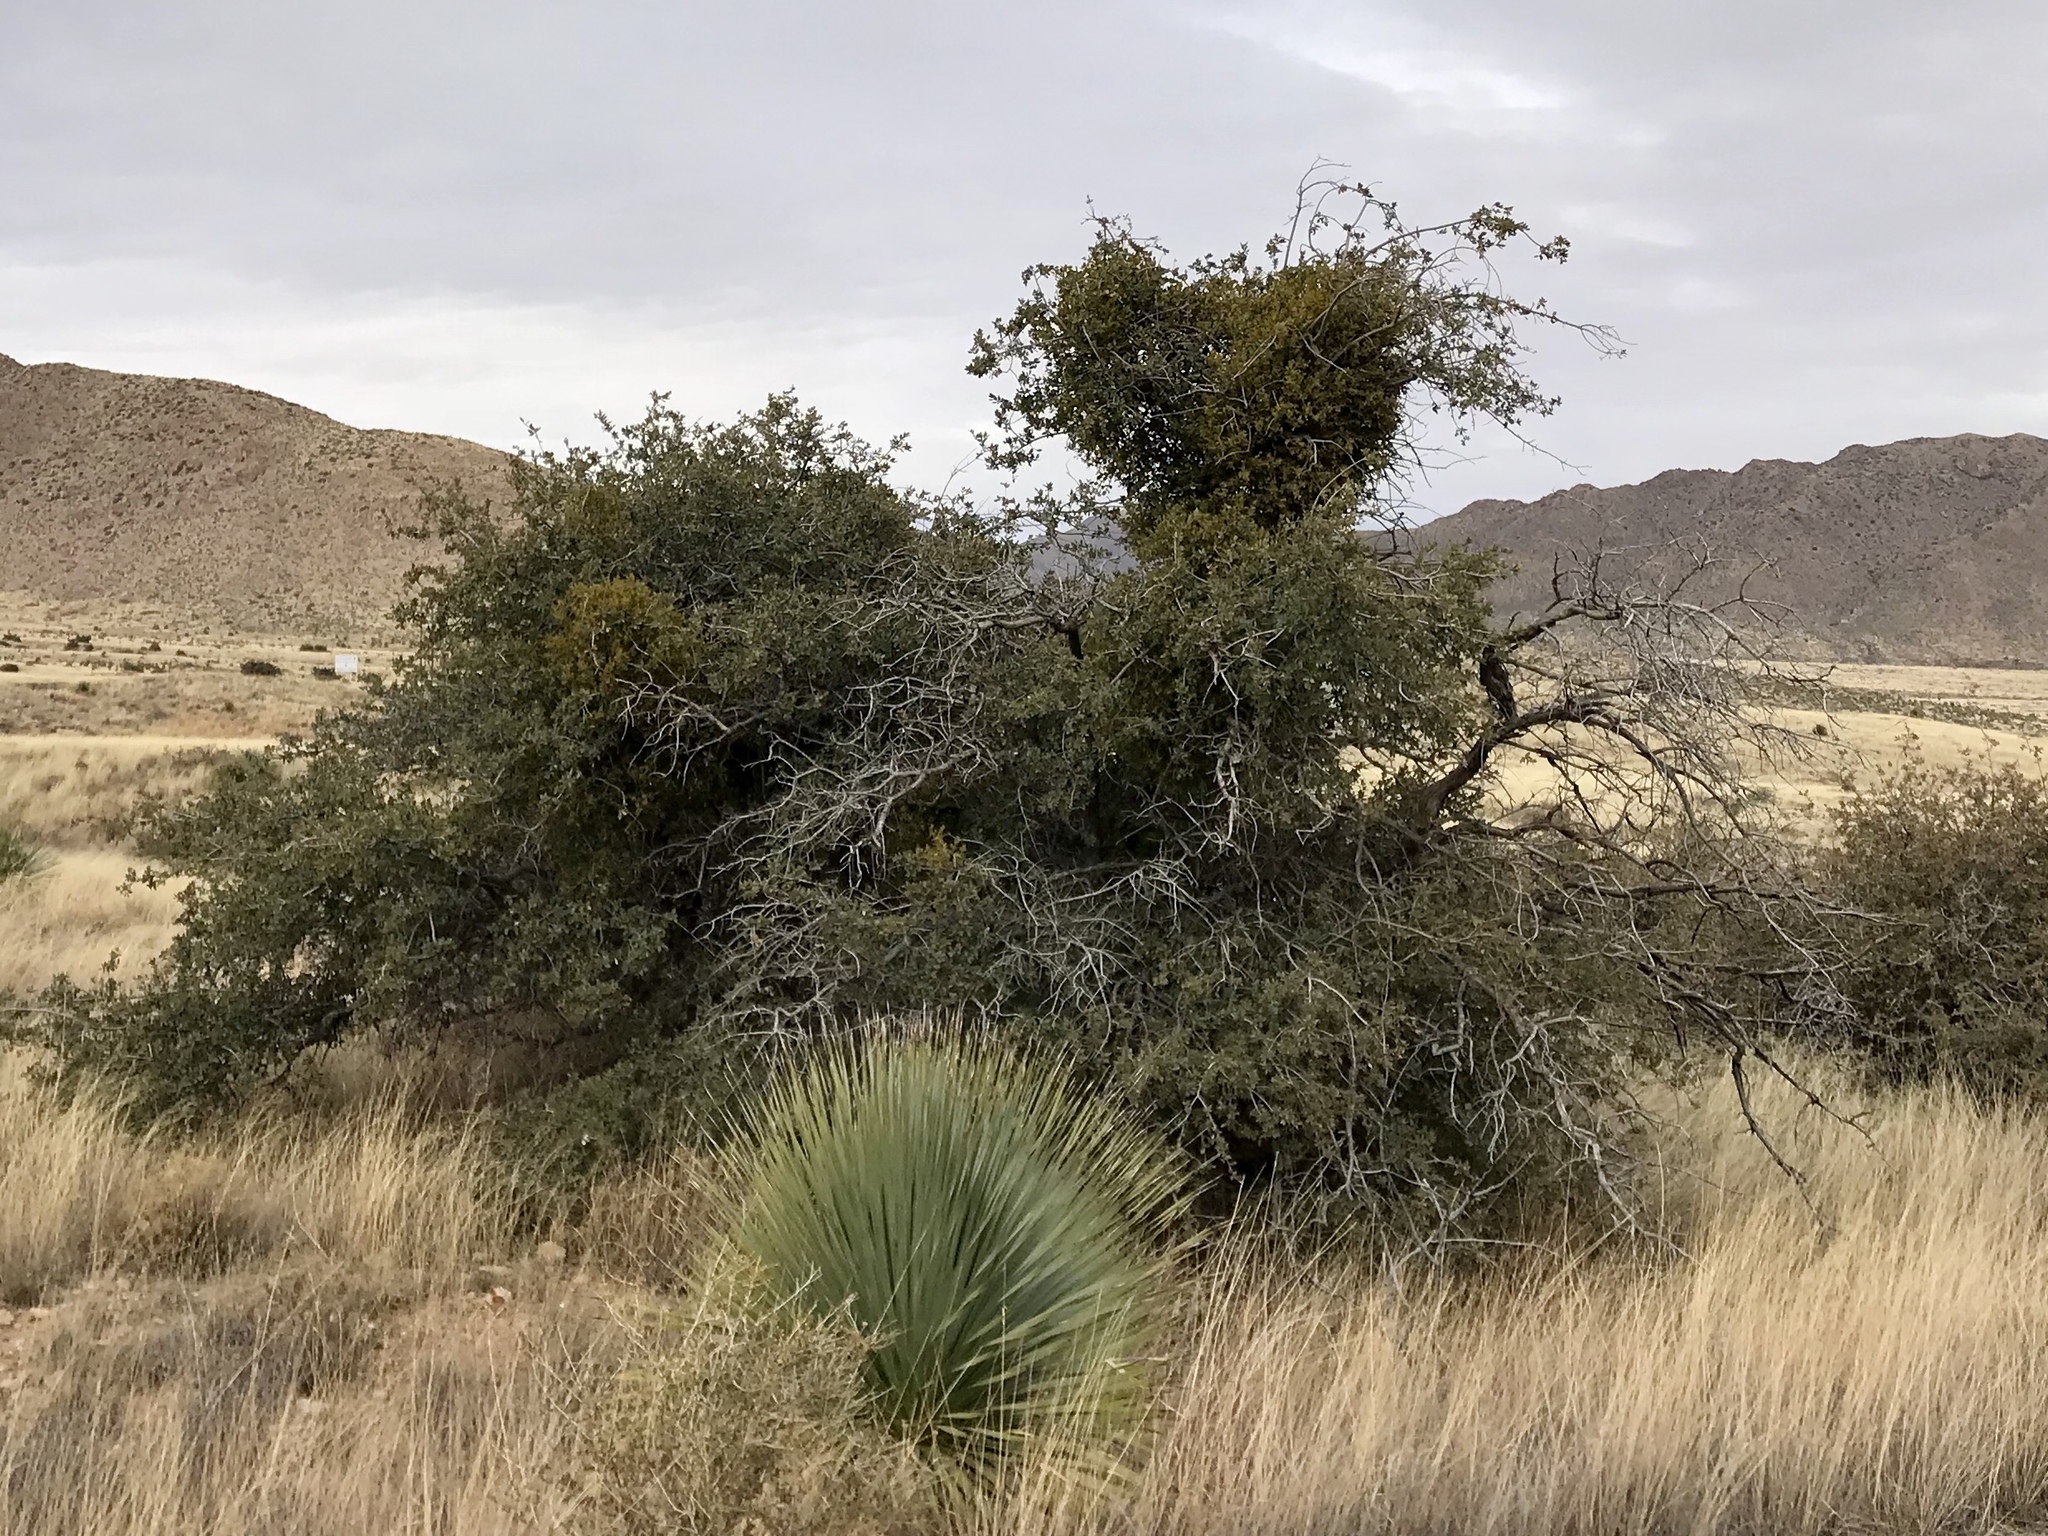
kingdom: Plantae
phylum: Tracheophyta
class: Magnoliopsida
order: Fagales
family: Fagaceae
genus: Quercus
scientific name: Quercus turbinella
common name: Sonoran scrub oak
